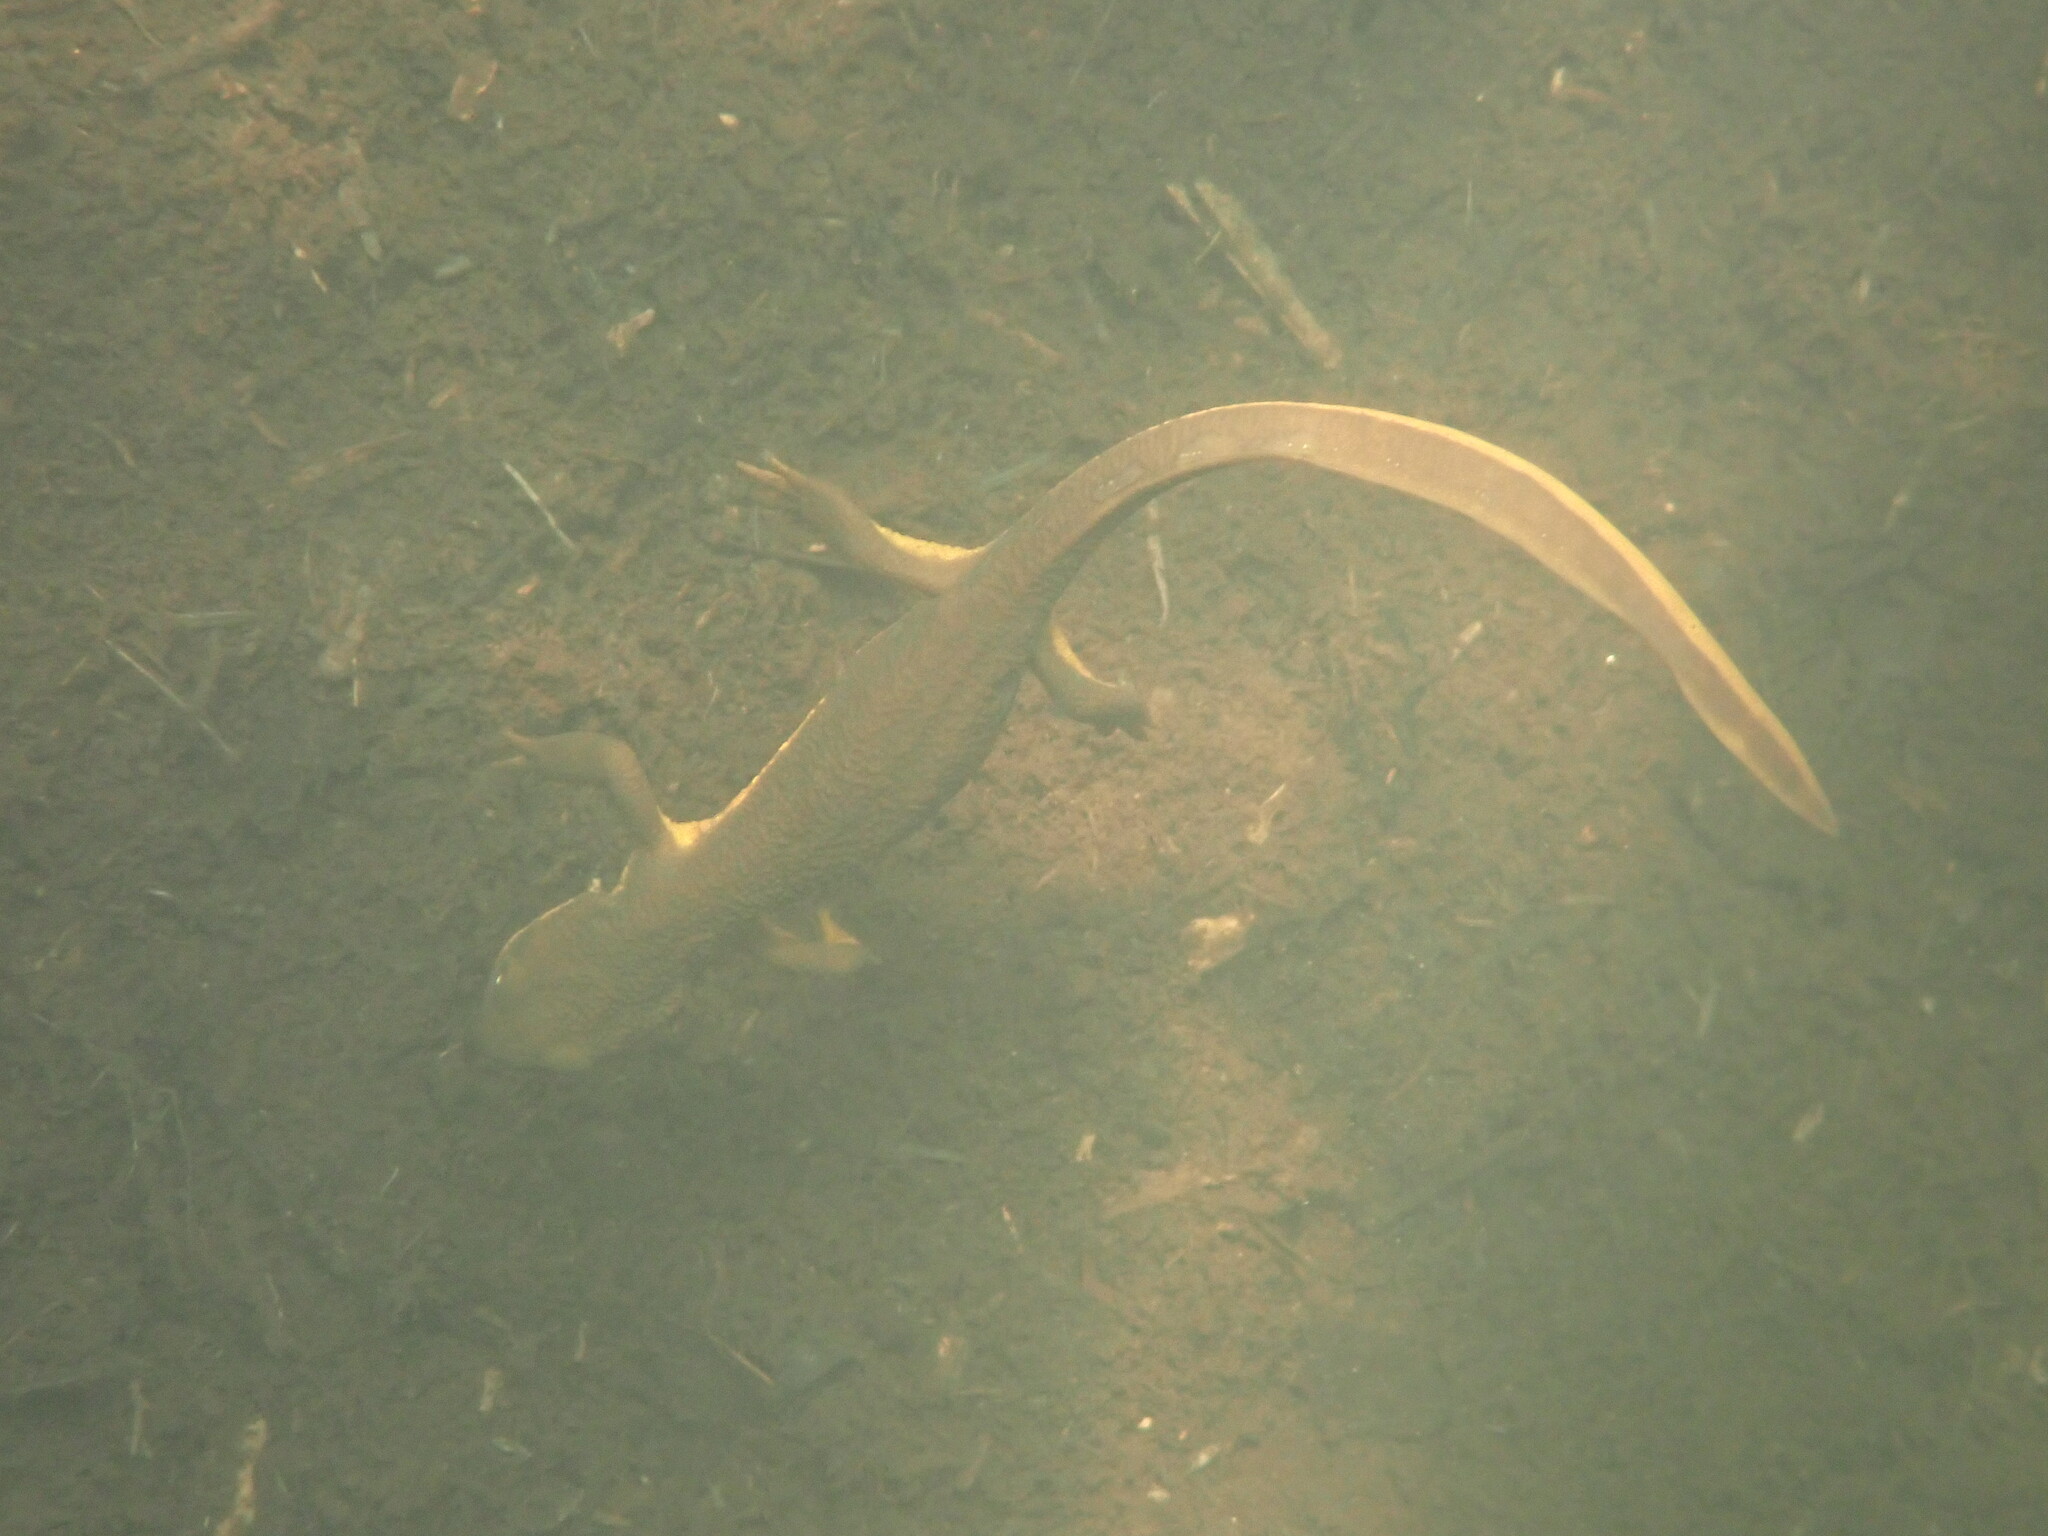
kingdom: Animalia
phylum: Chordata
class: Amphibia
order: Caudata
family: Salamandridae
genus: Taricha
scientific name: Taricha granulosa
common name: Roughskin newt
